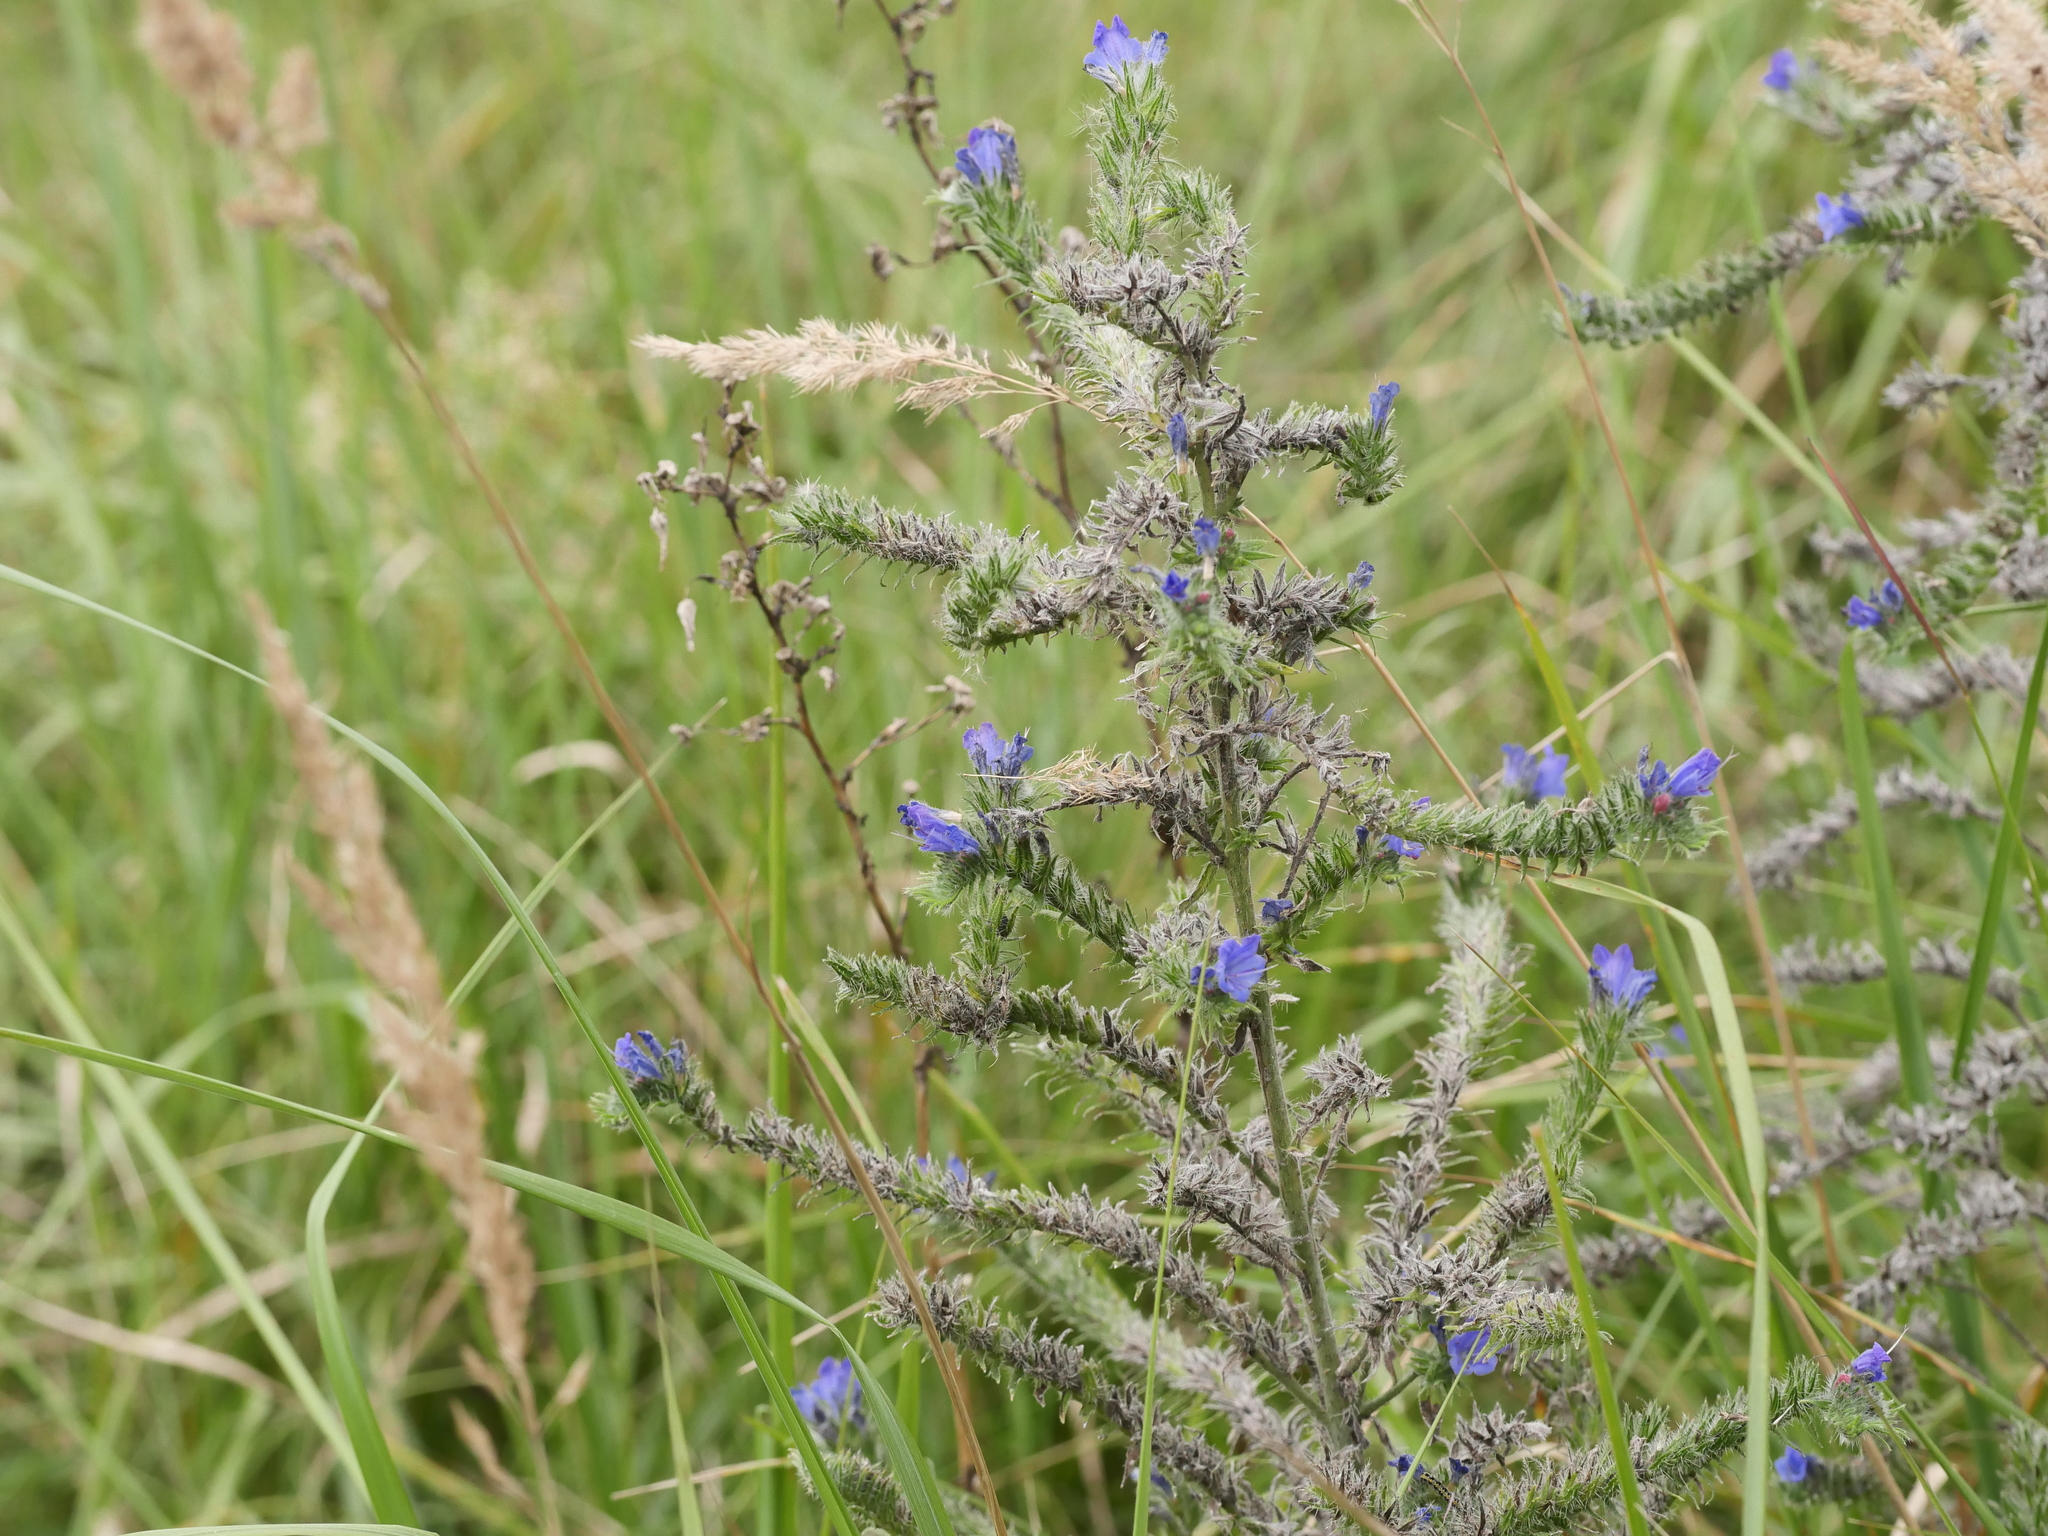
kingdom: Plantae
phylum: Tracheophyta
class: Magnoliopsida
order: Boraginales
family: Boraginaceae
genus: Echium
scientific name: Echium vulgare
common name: Common viper's bugloss
